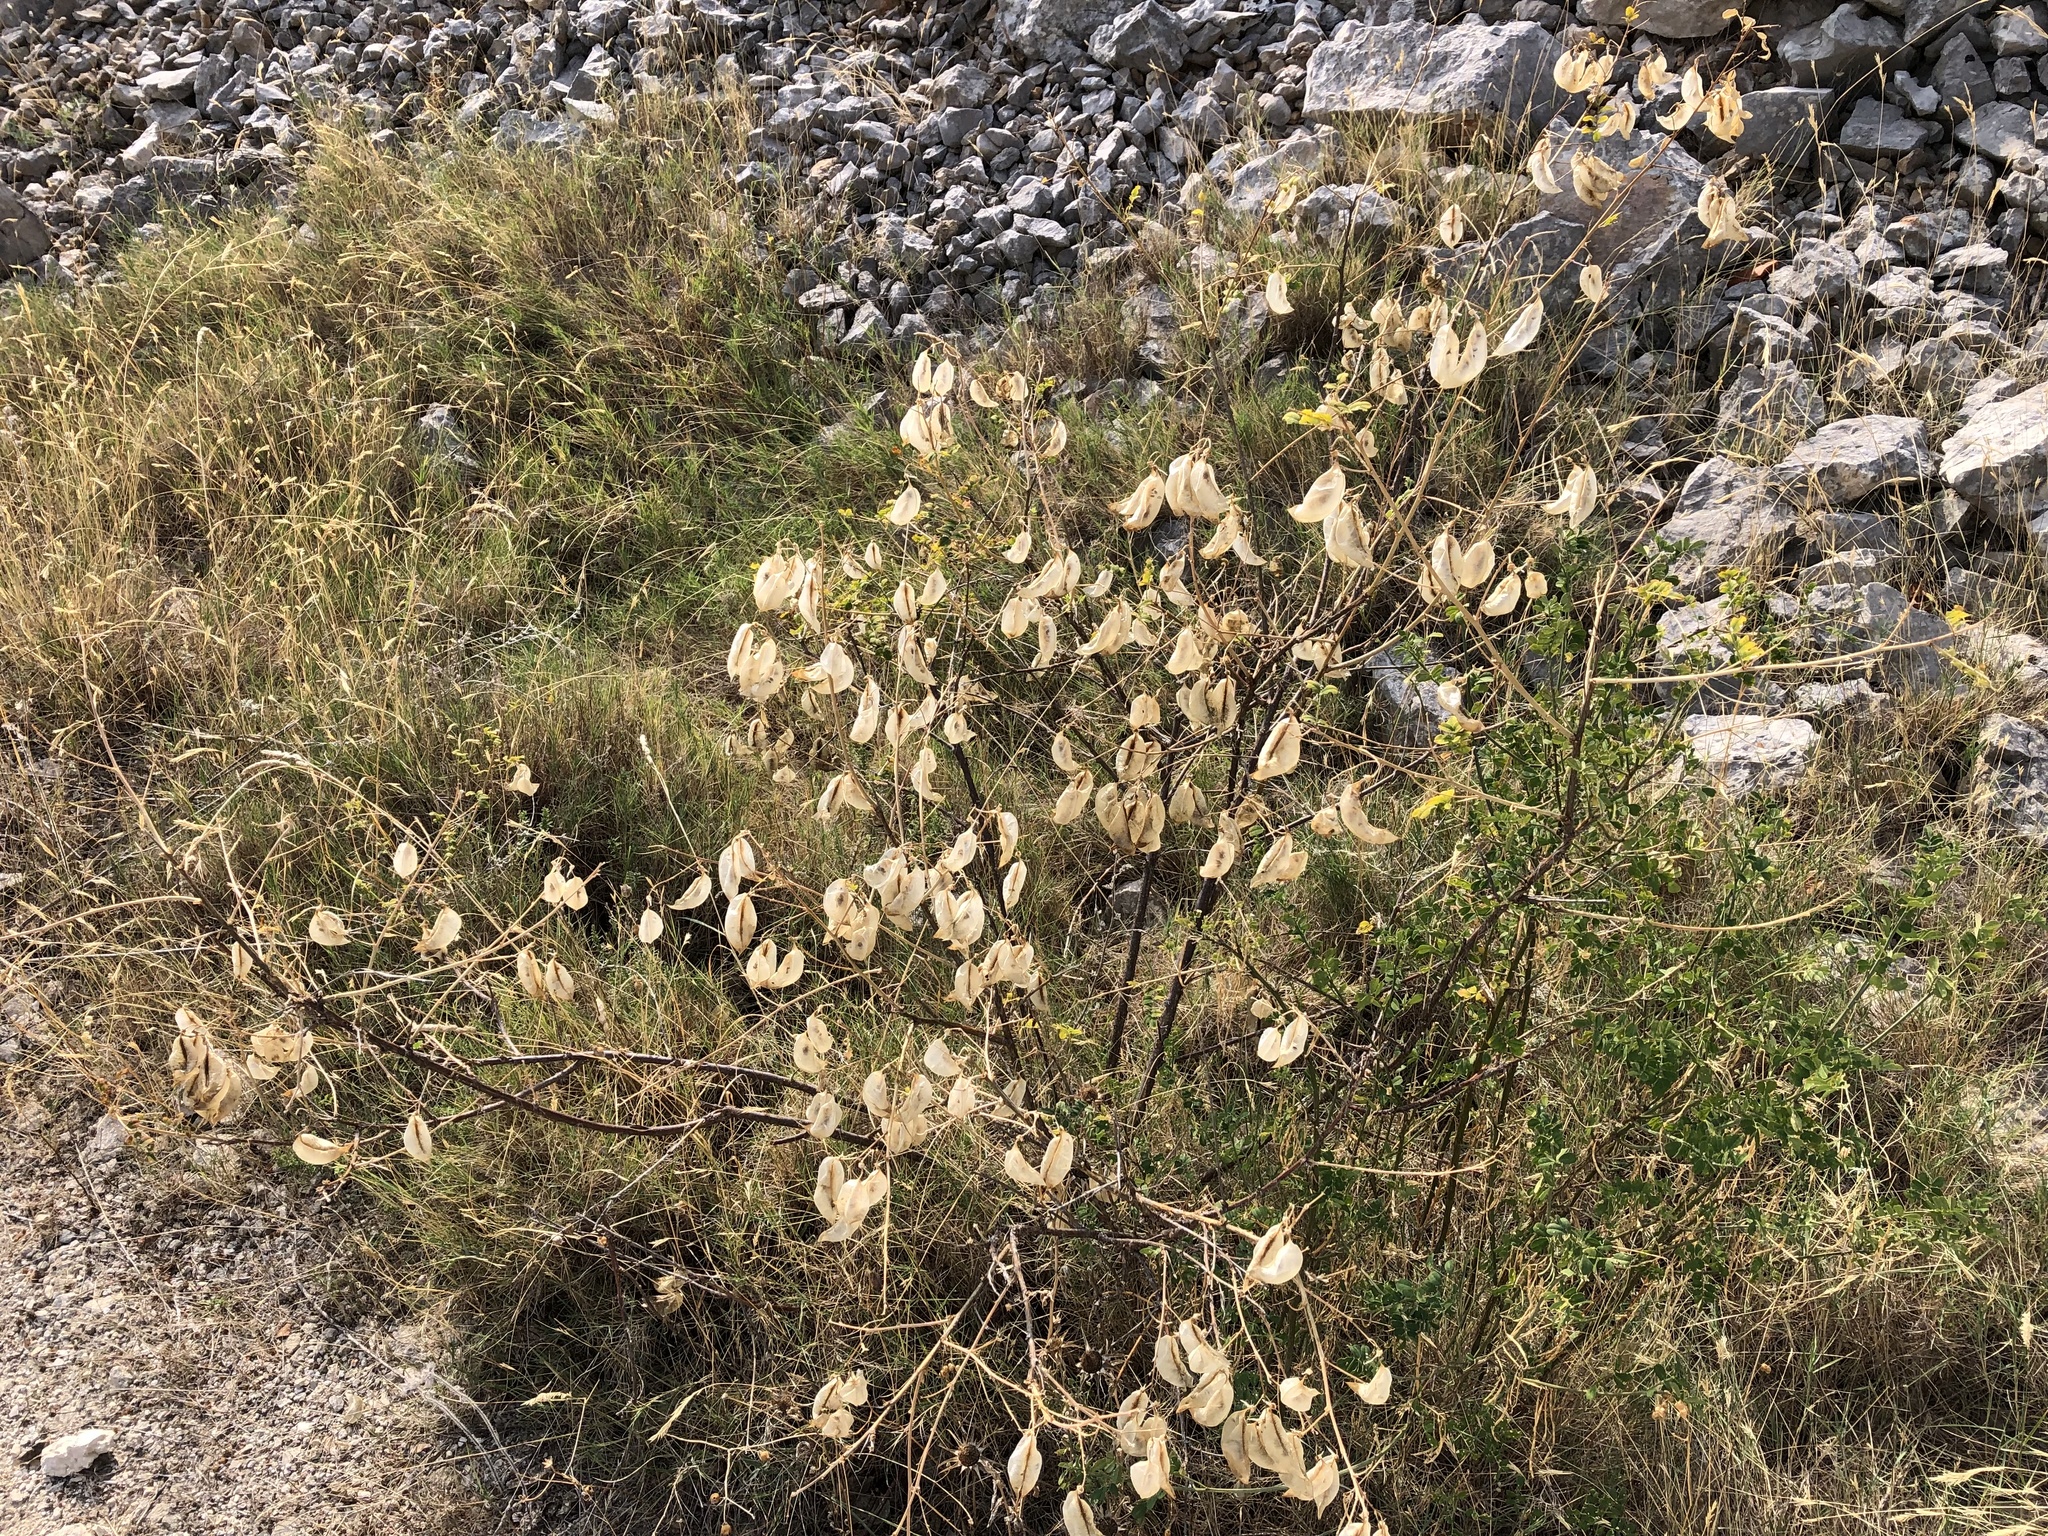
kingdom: Plantae
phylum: Tracheophyta
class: Magnoliopsida
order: Fabales
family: Fabaceae
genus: Colutea
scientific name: Colutea arborescens
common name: Bladder-senna
